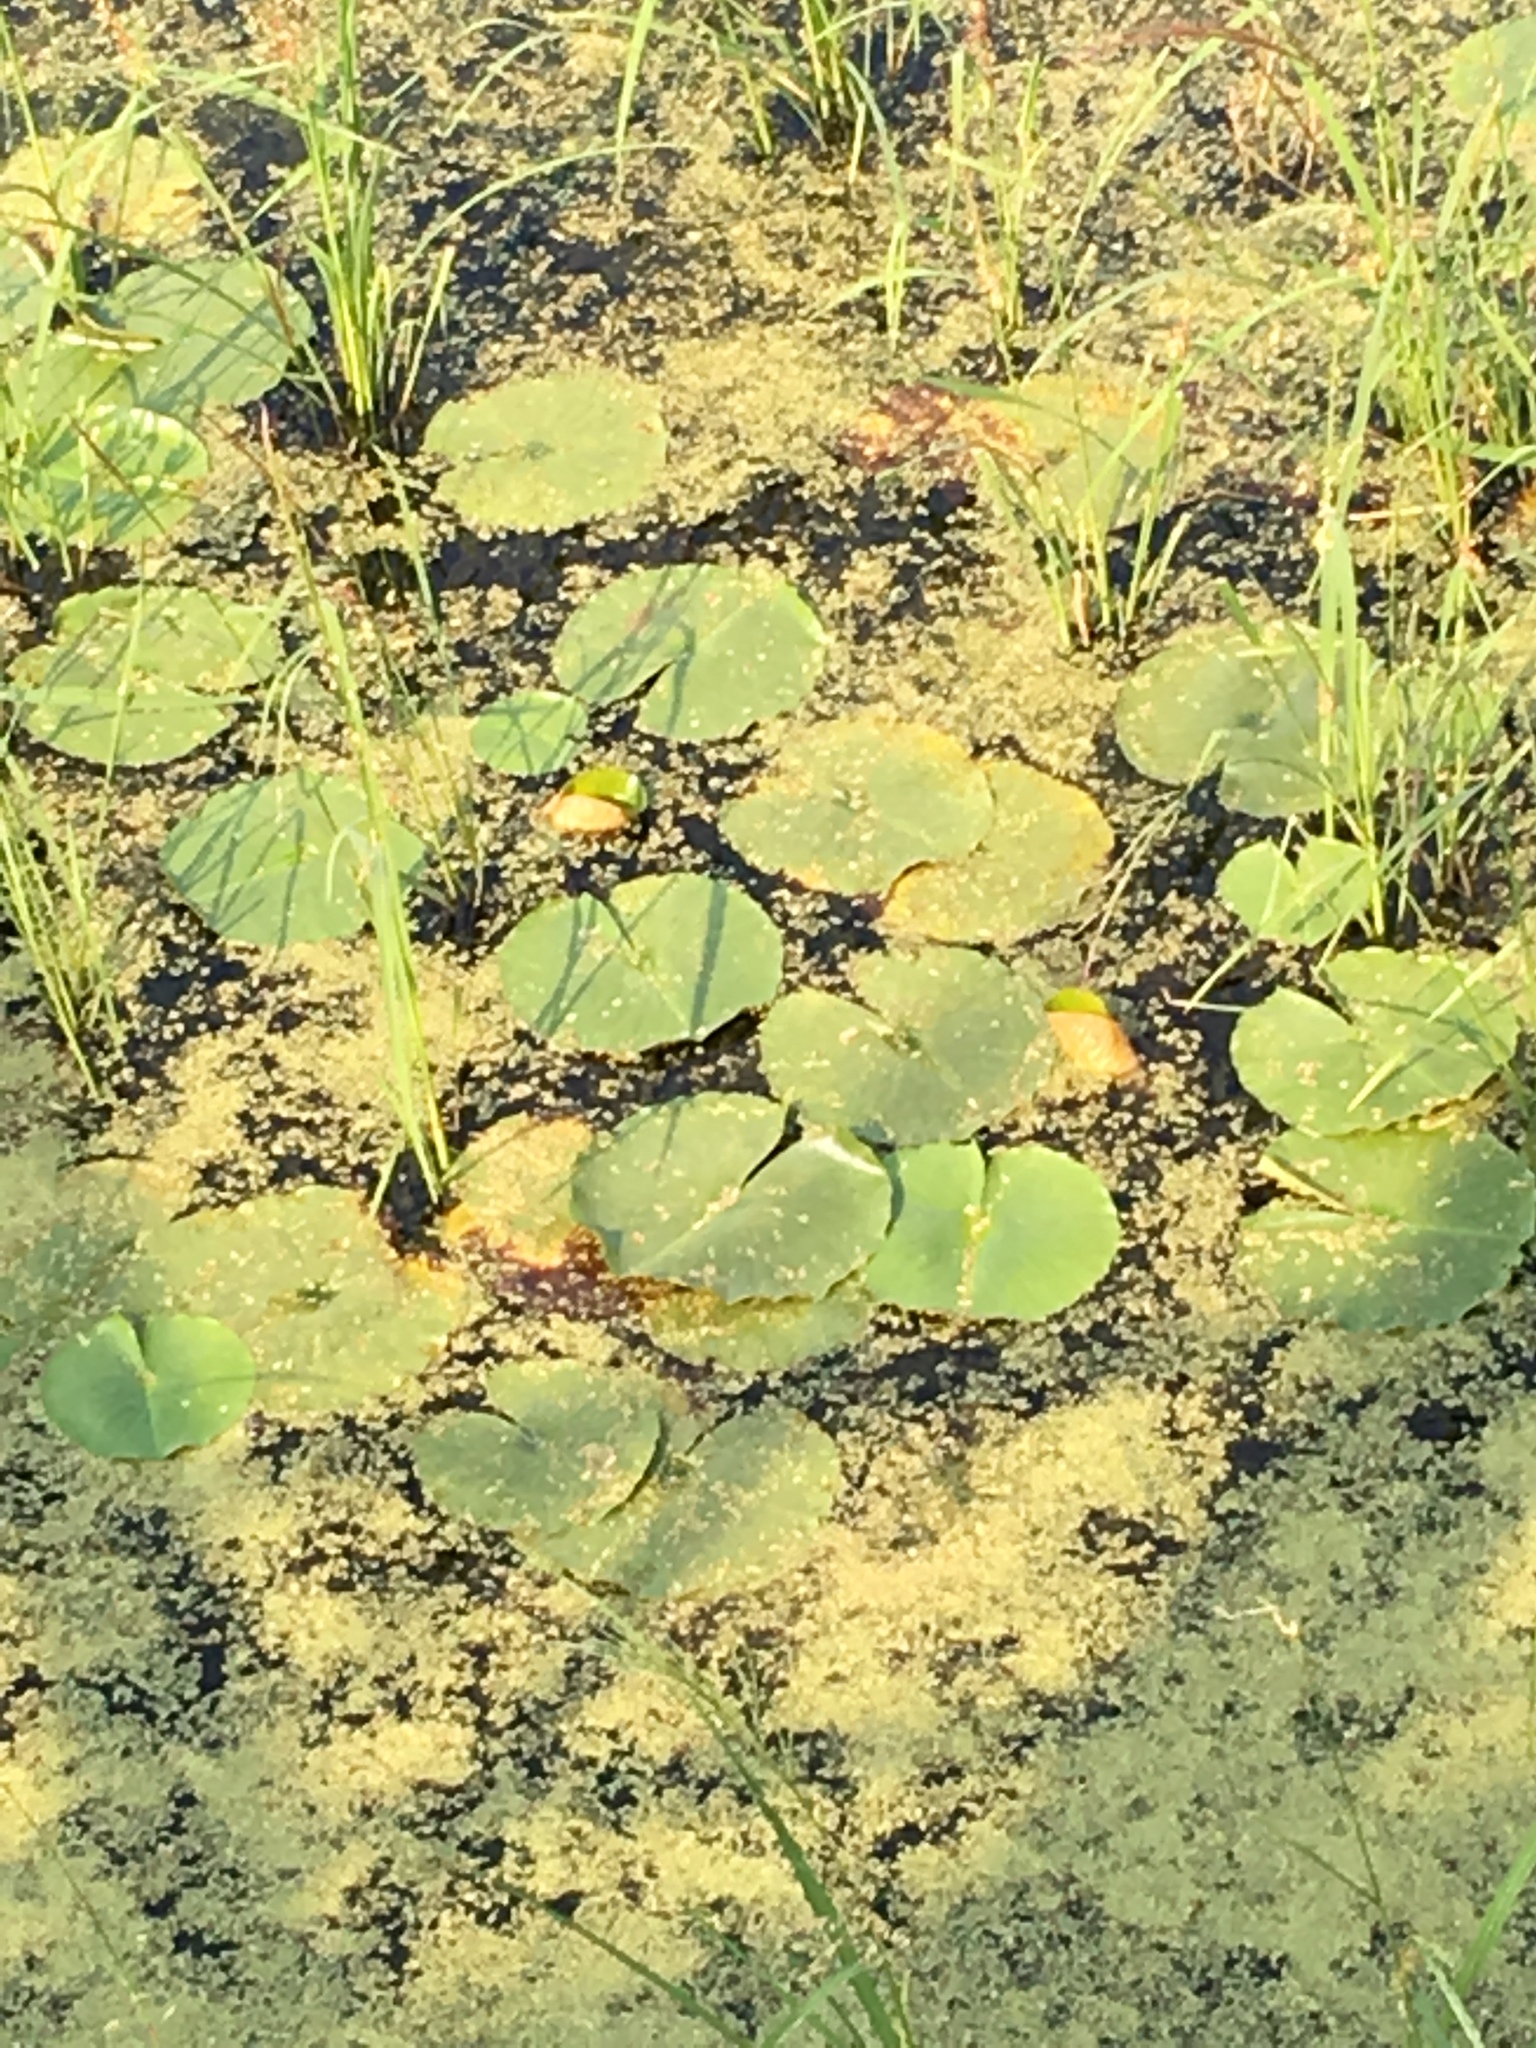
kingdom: Plantae
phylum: Tracheophyta
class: Magnoliopsida
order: Nymphaeales
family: Nymphaeaceae
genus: Nymphaea
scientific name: Nymphaea odorata
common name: Fragrant water-lily
